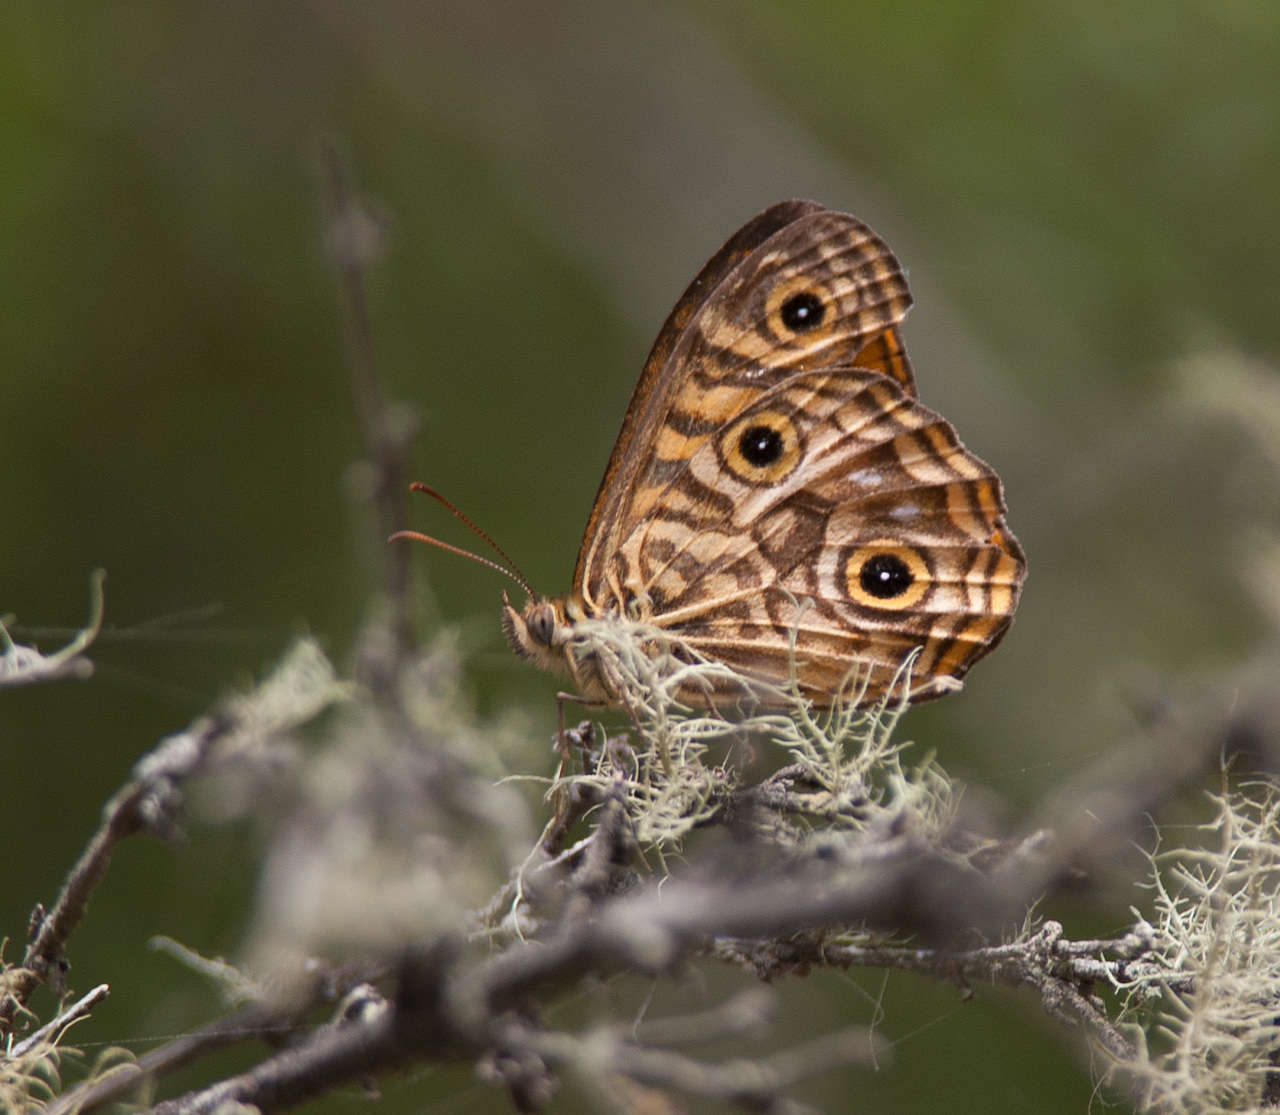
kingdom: Animalia
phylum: Arthropoda
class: Insecta
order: Lepidoptera
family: Nymphalidae
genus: Geitoneura
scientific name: Geitoneura acantha
